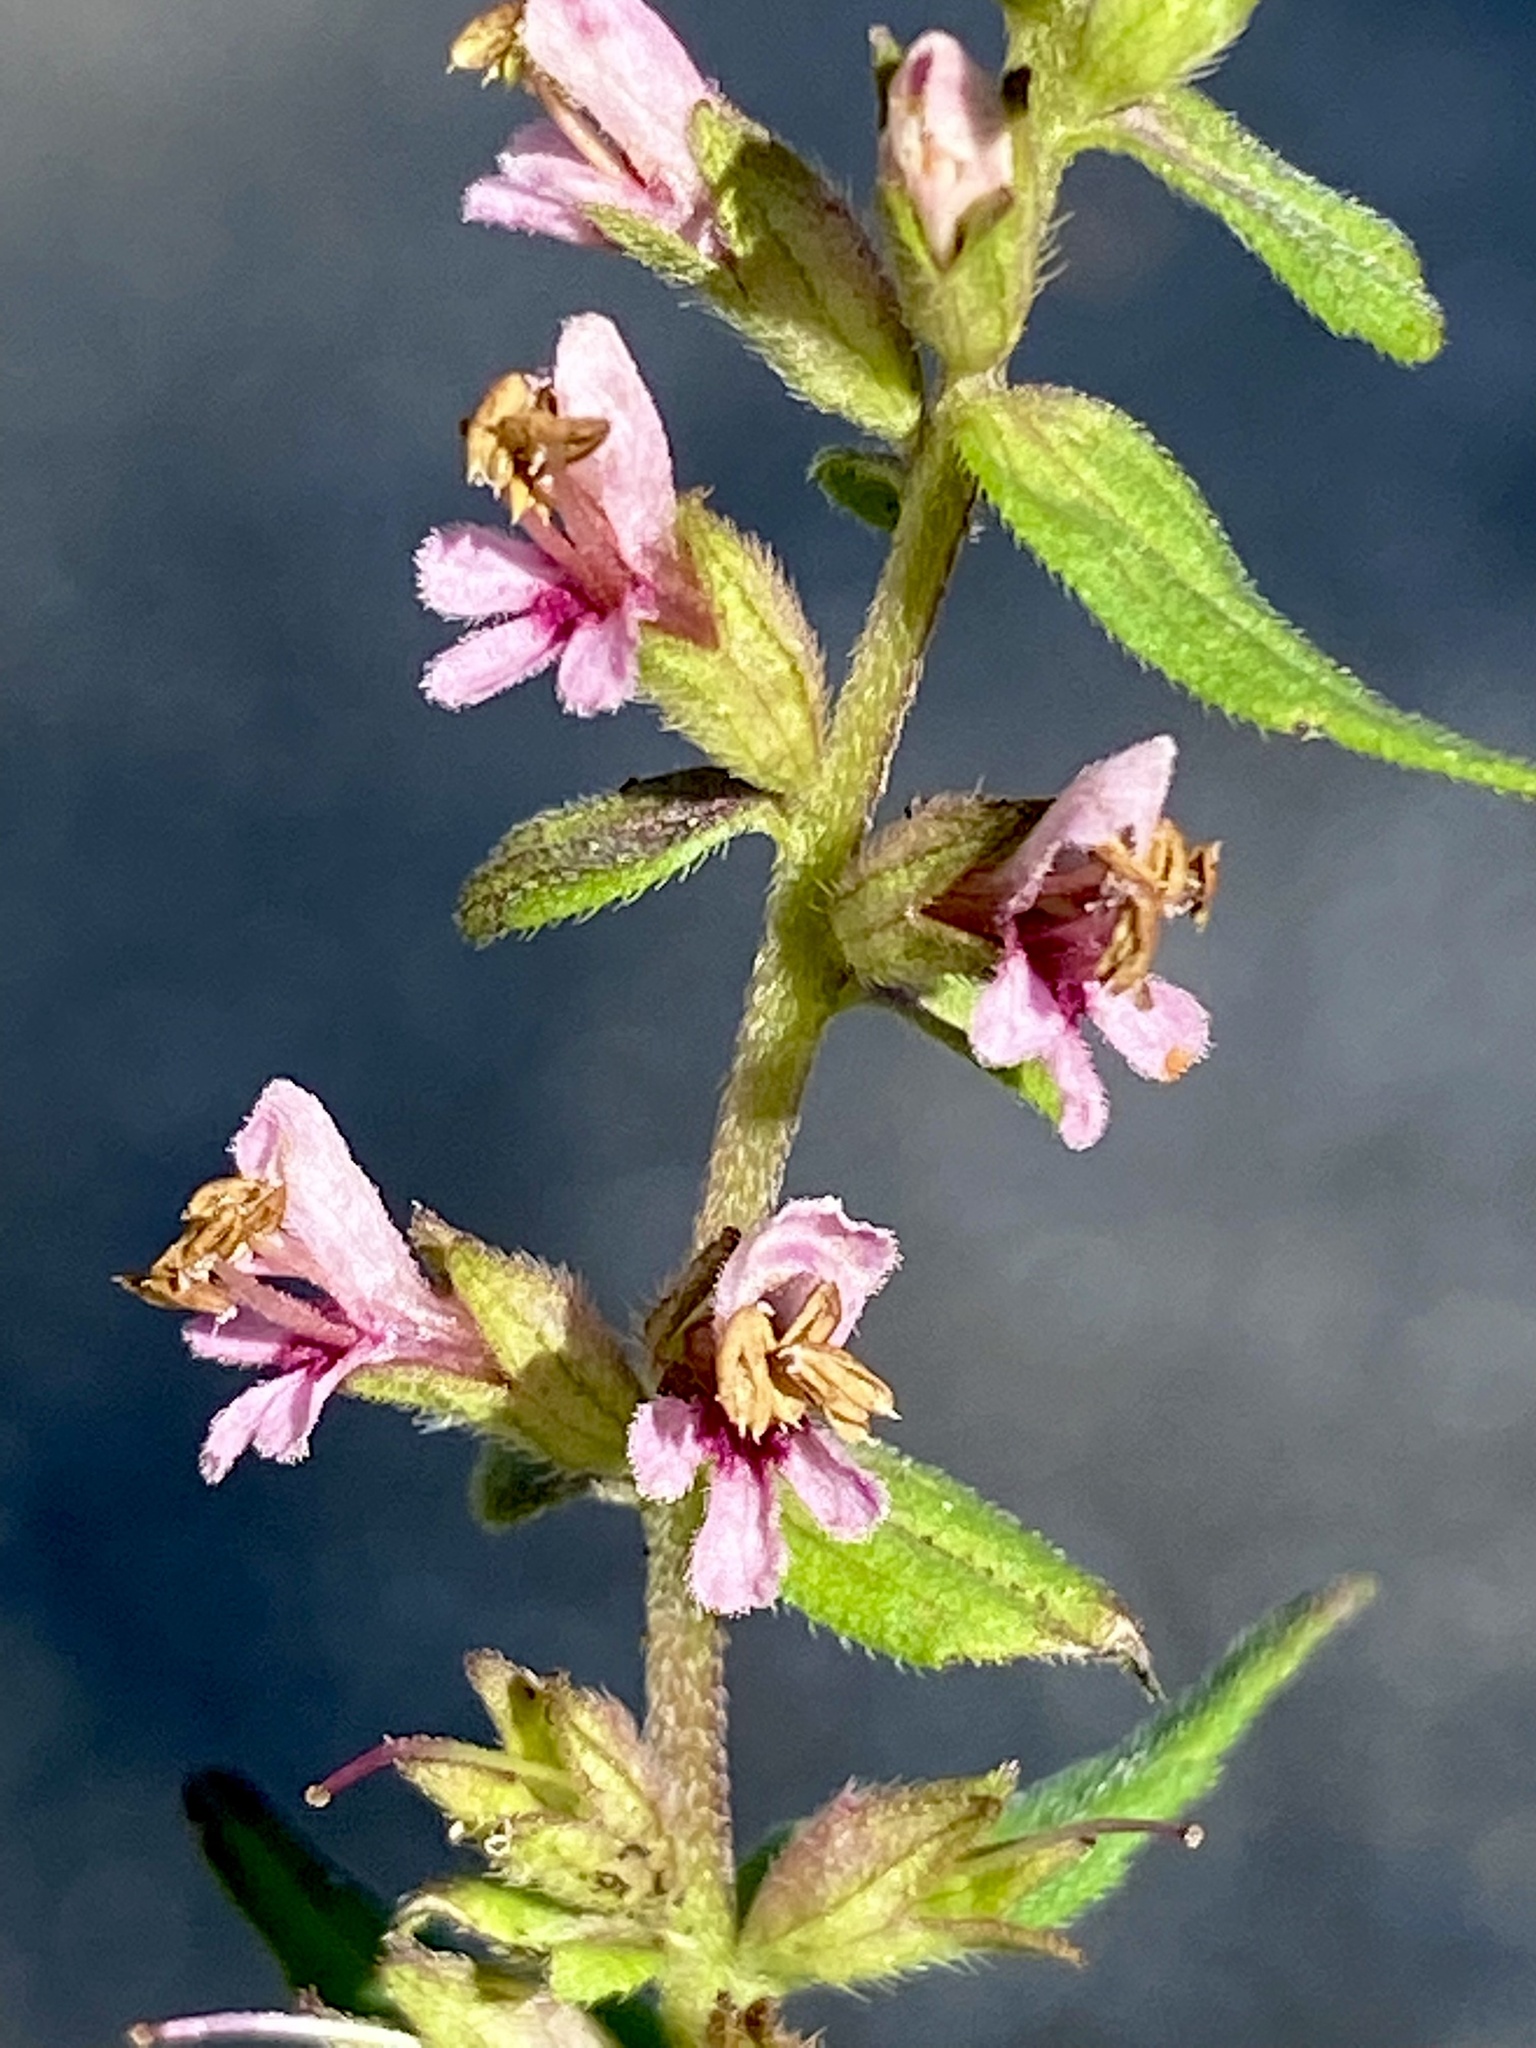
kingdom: Plantae
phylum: Tracheophyta
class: Magnoliopsida
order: Lamiales
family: Orobanchaceae
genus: Odontites
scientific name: Odontites vulgaris
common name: Broomrape
